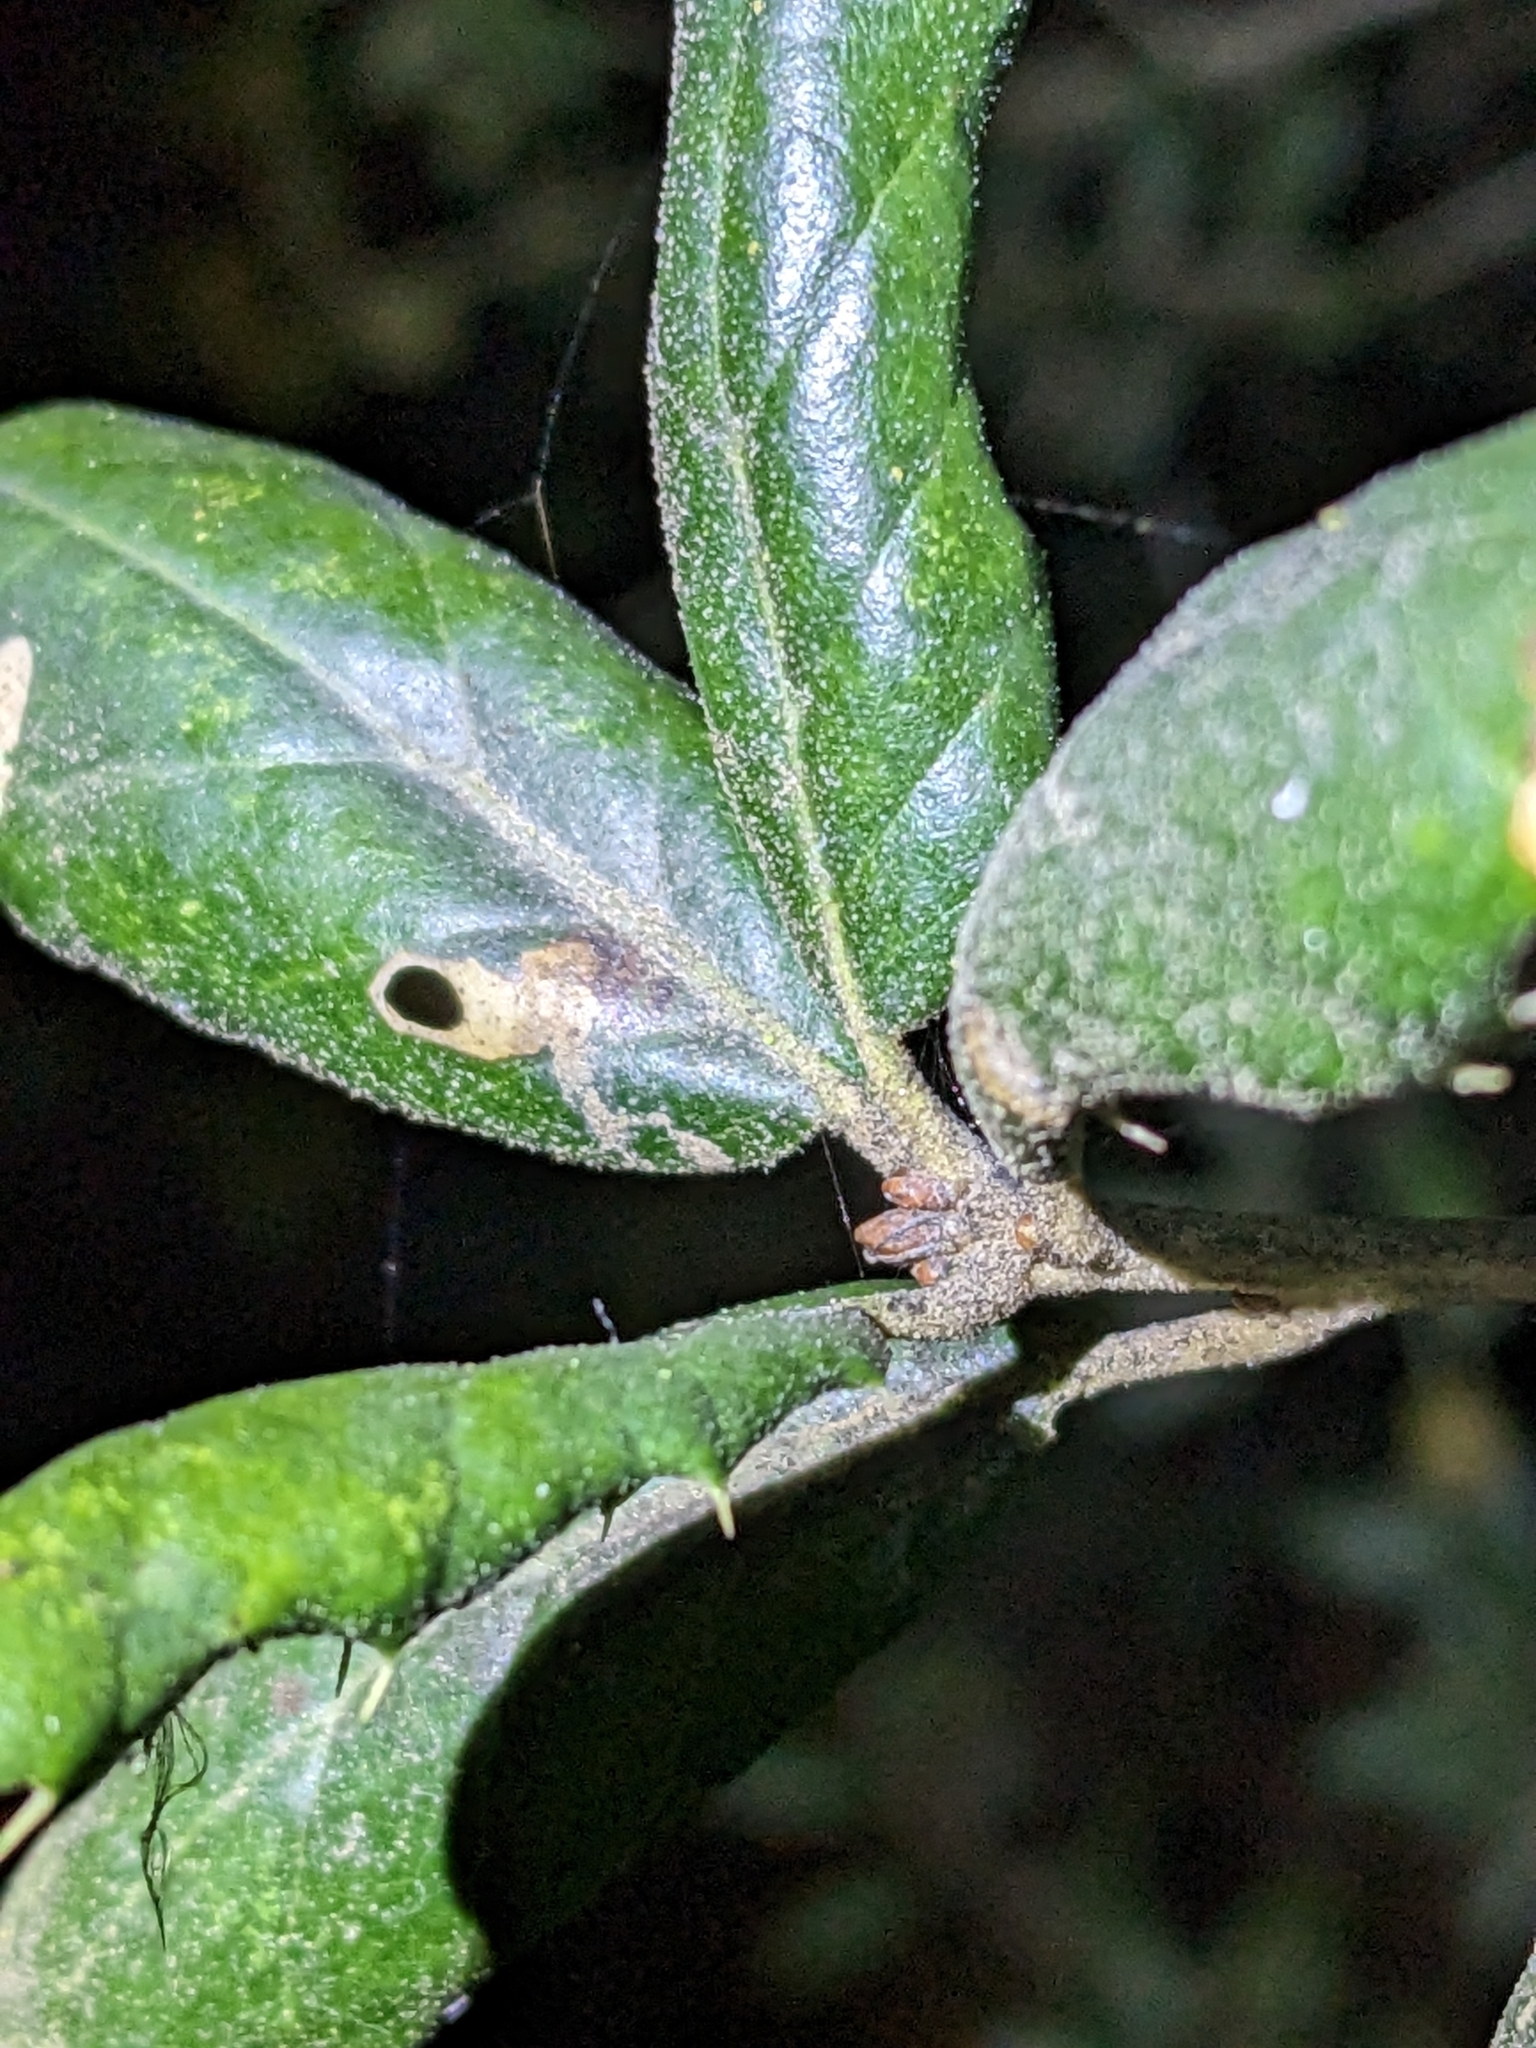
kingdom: Plantae
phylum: Tracheophyta
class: Magnoliopsida
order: Fagales
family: Fagaceae
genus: Quercus
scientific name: Quercus agrifolia
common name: California live oak
